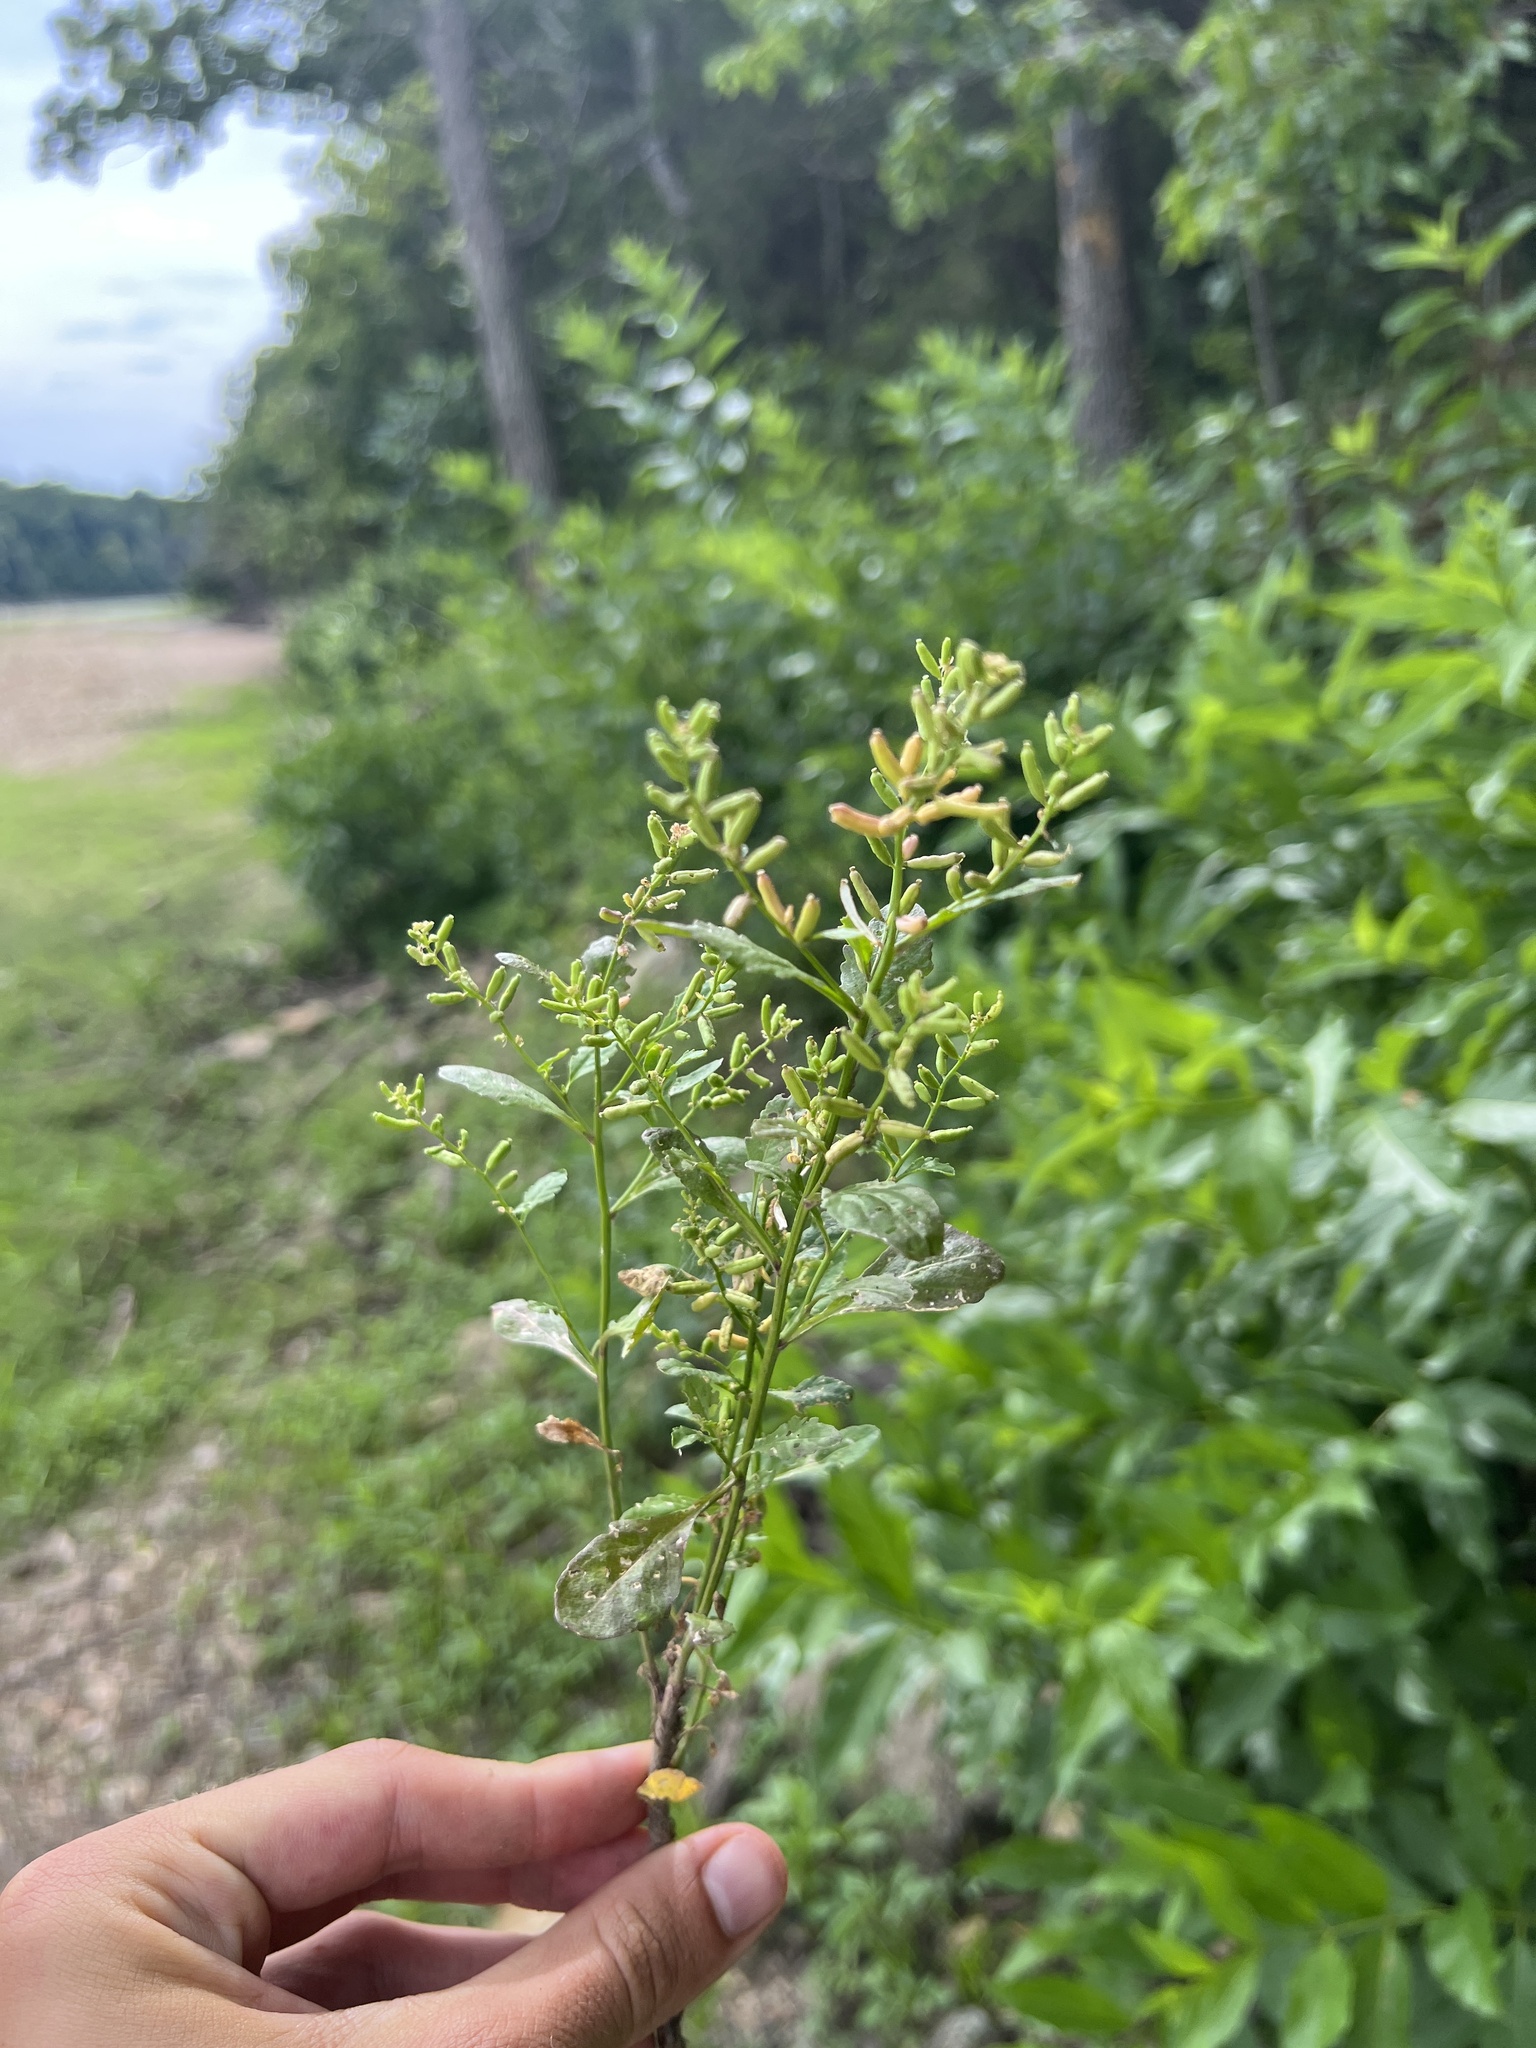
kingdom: Plantae
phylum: Tracheophyta
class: Magnoliopsida
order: Brassicales
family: Brassicaceae
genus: Rorippa
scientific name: Rorippa sessiliflora
